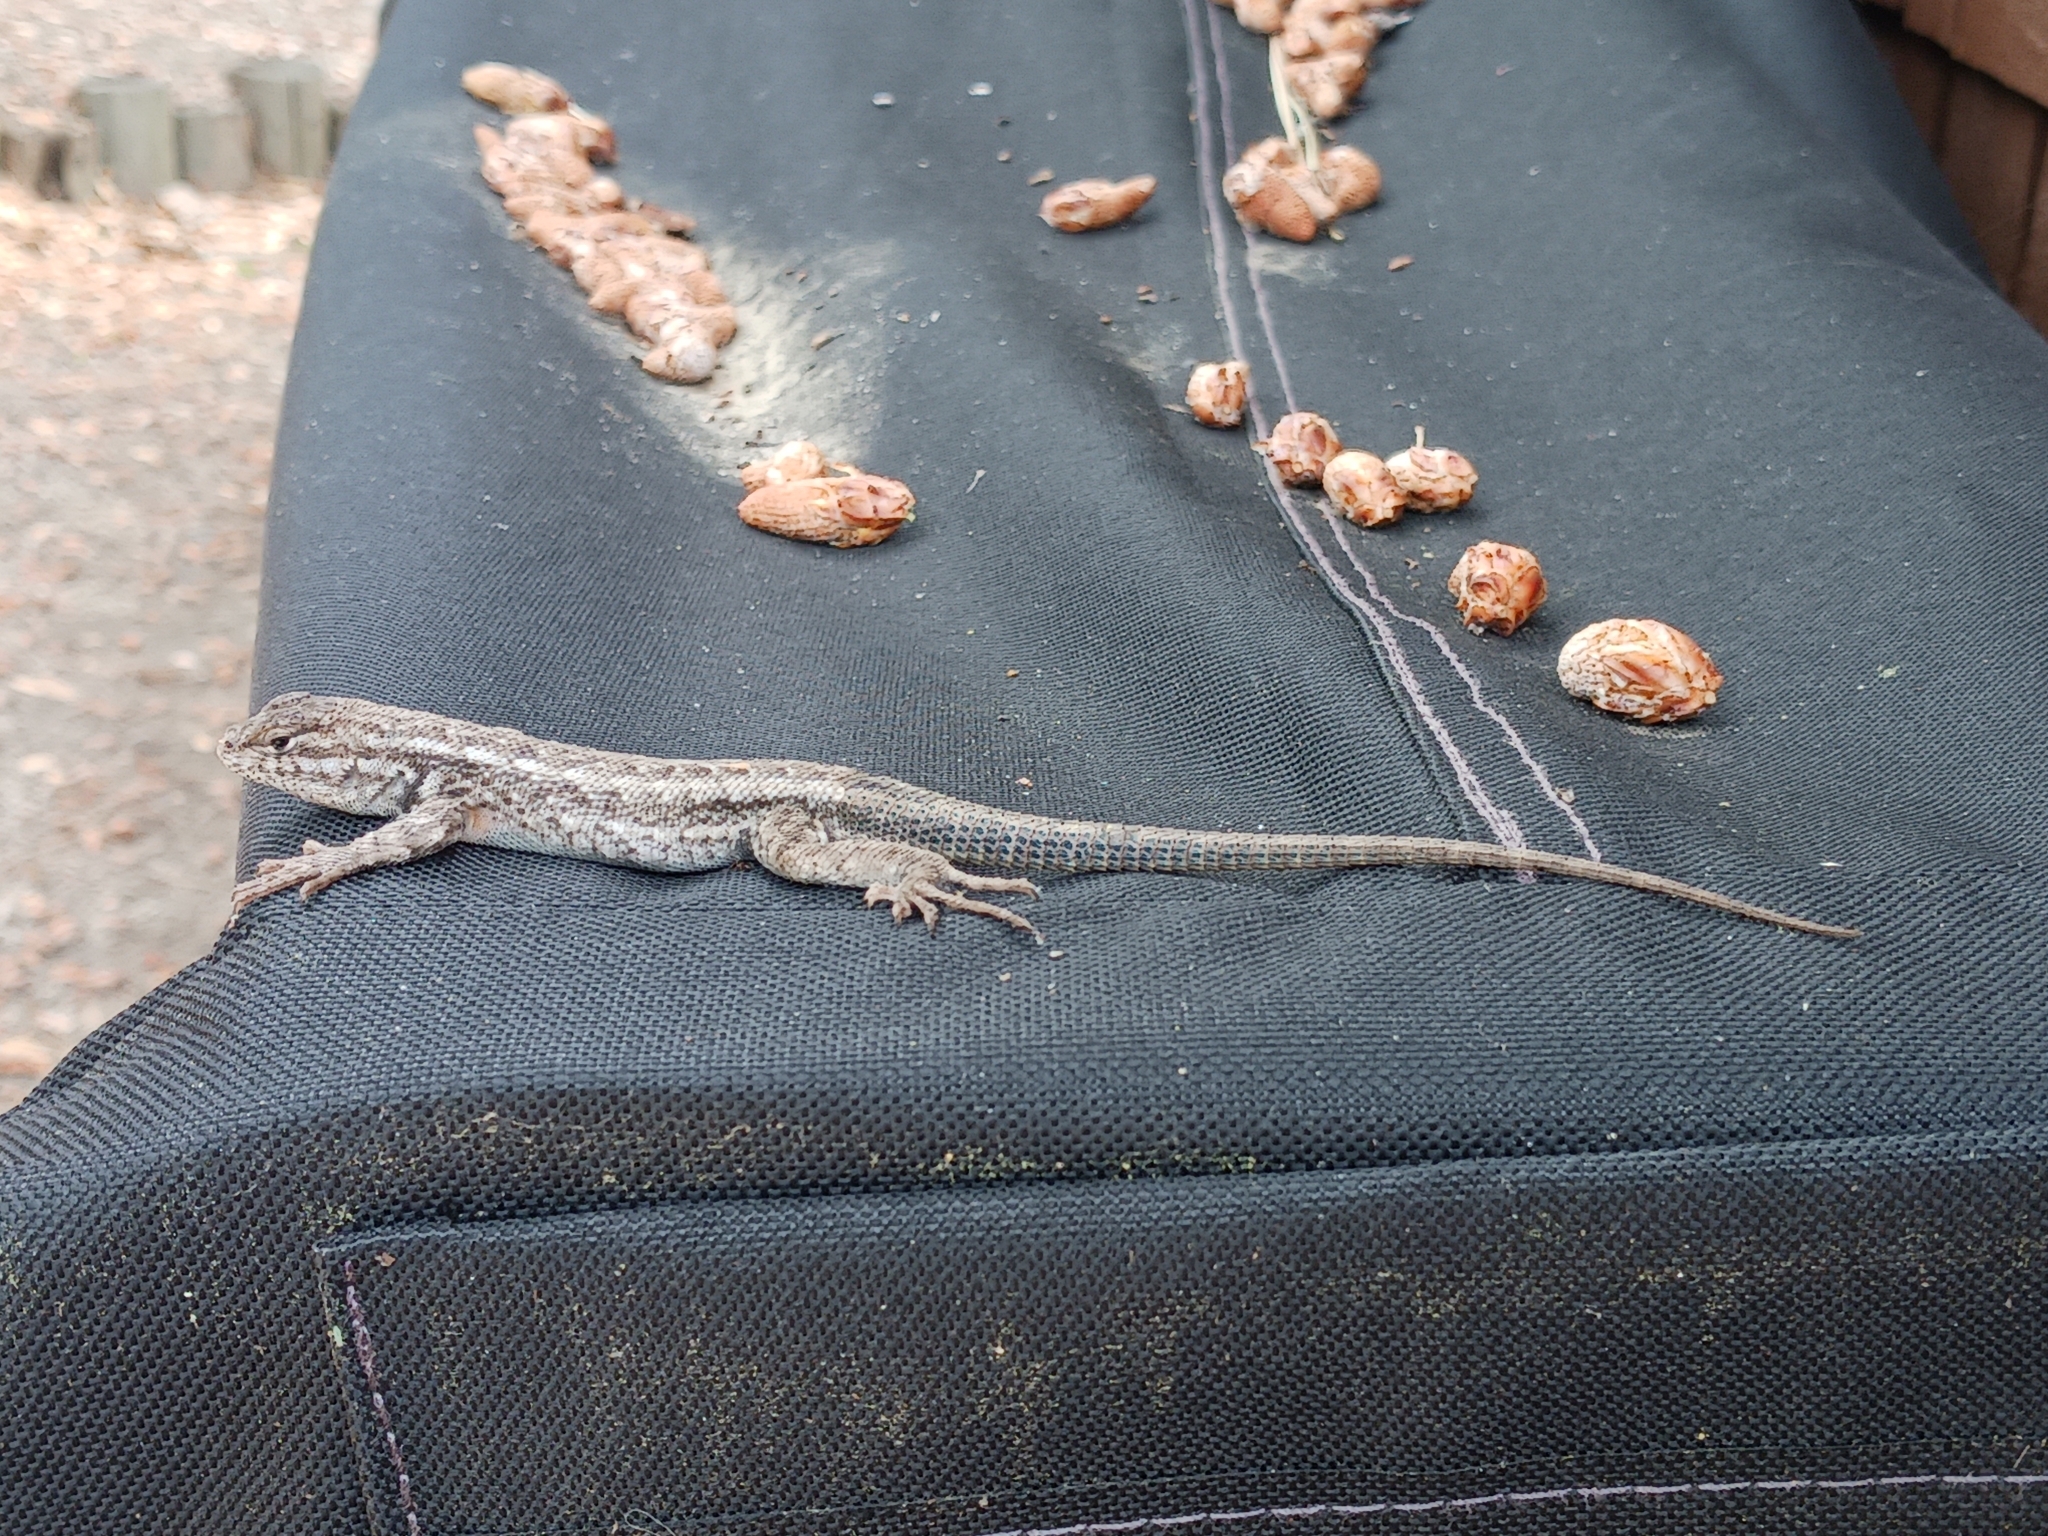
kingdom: Animalia
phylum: Chordata
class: Squamata
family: Phrynosomatidae
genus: Sceloporus
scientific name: Sceloporus graciosus
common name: Sagebrush lizard
